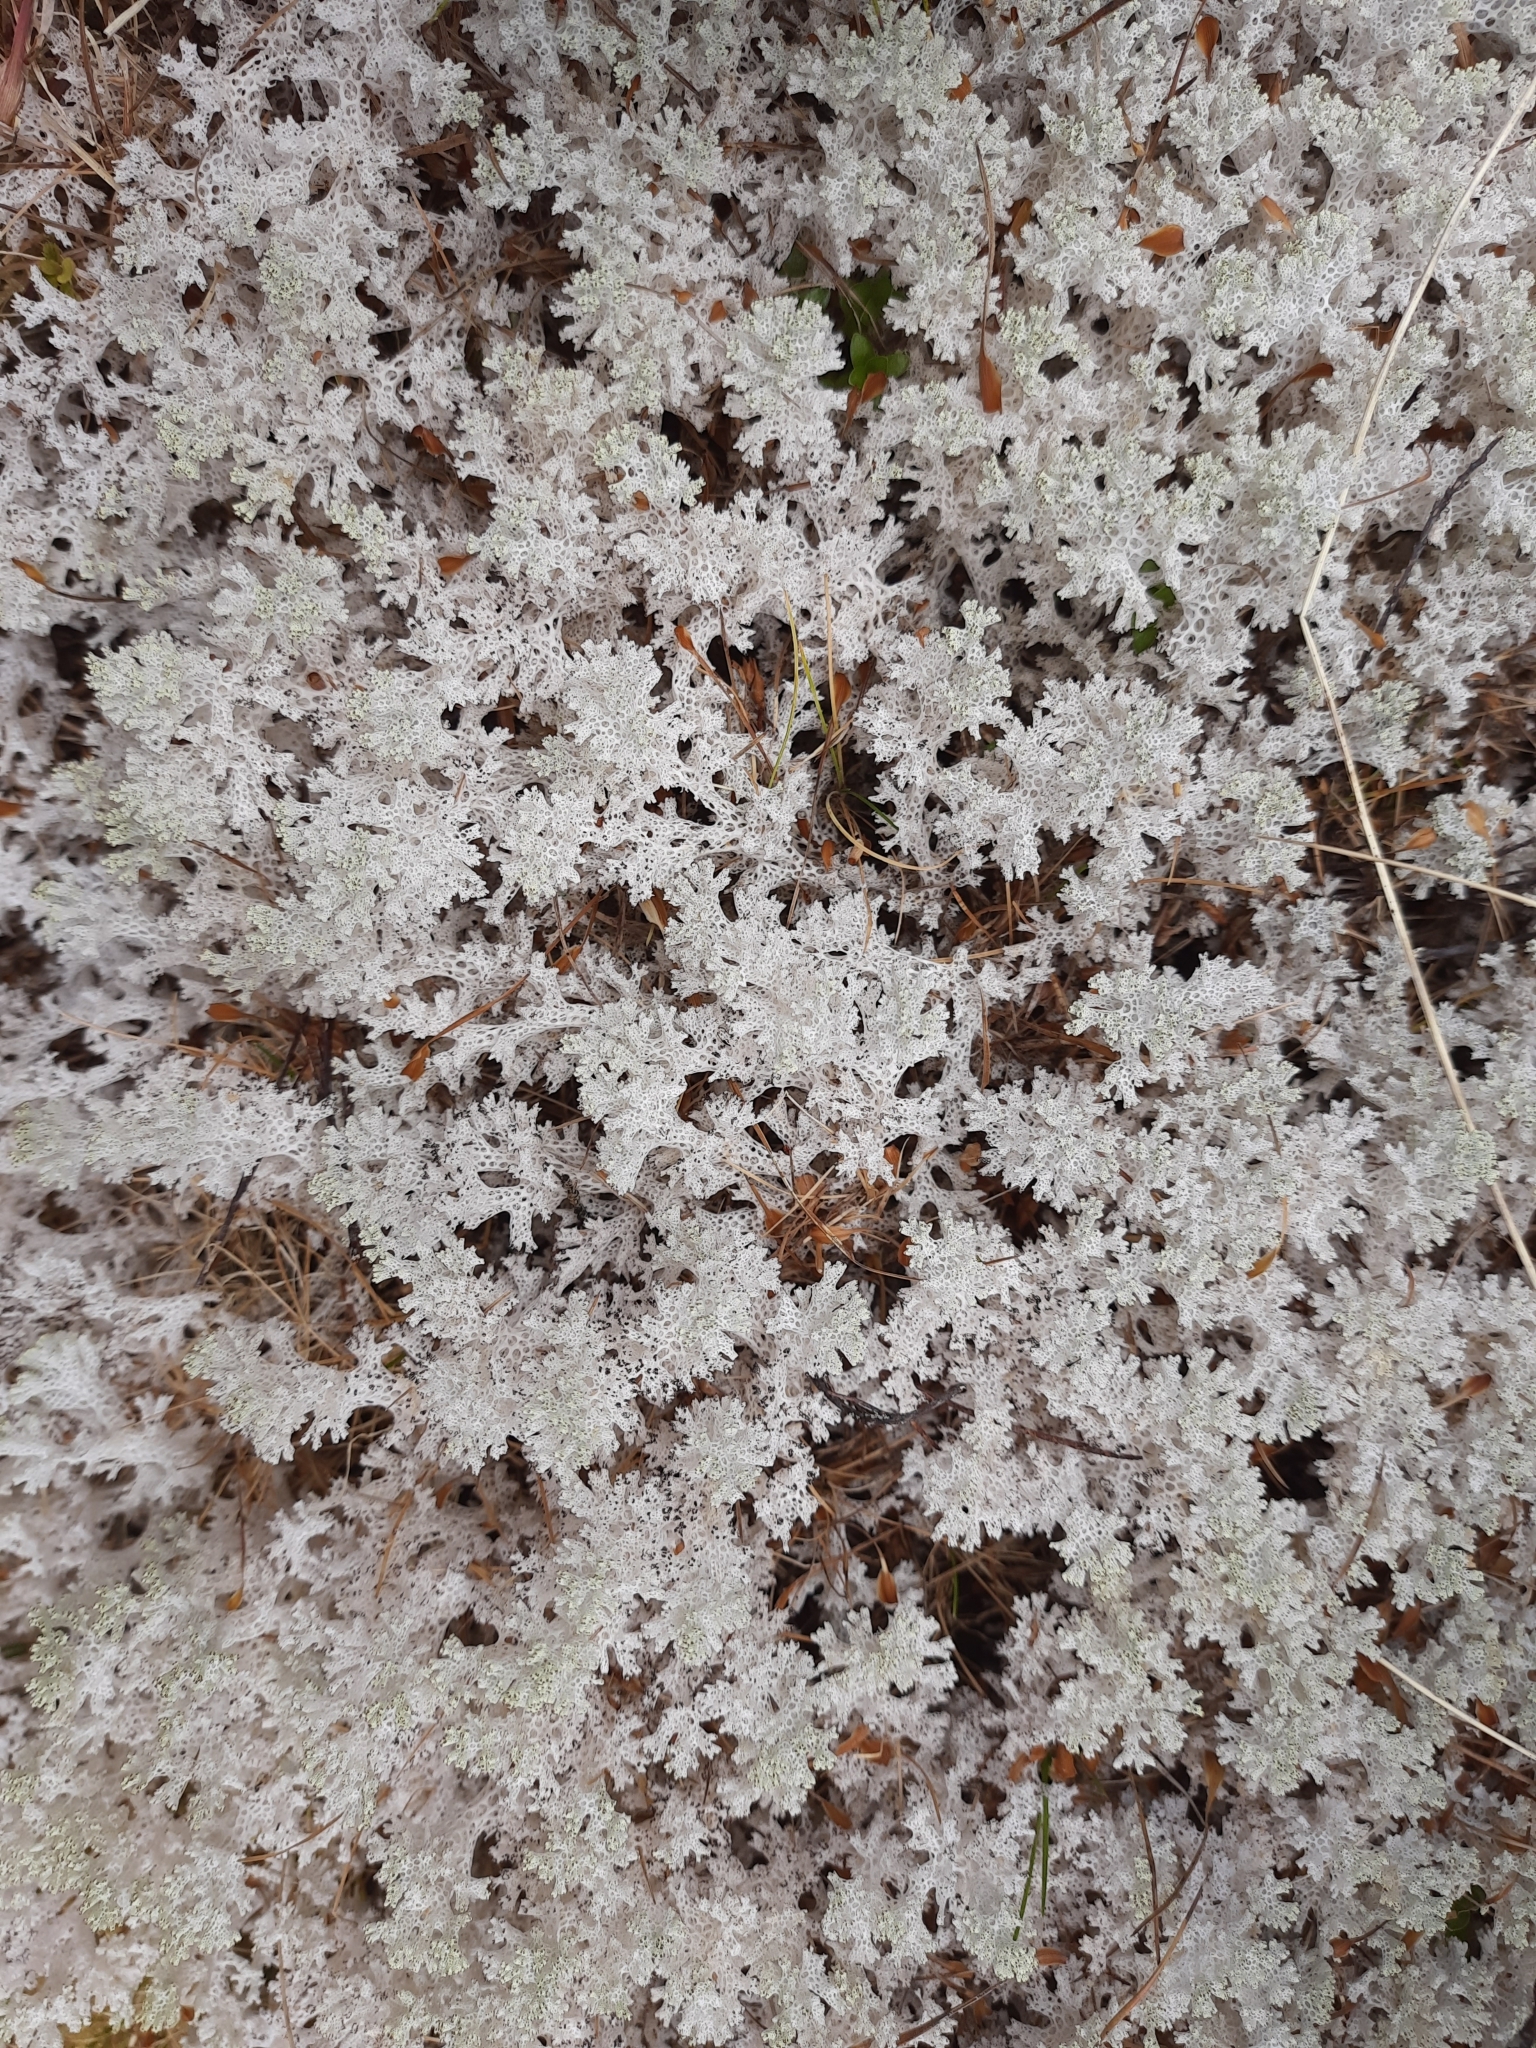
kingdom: Fungi
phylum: Ascomycota
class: Lecanoromycetes
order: Lecanorales
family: Cladoniaceae
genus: Pulchrocladia
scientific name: Pulchrocladia retipora
